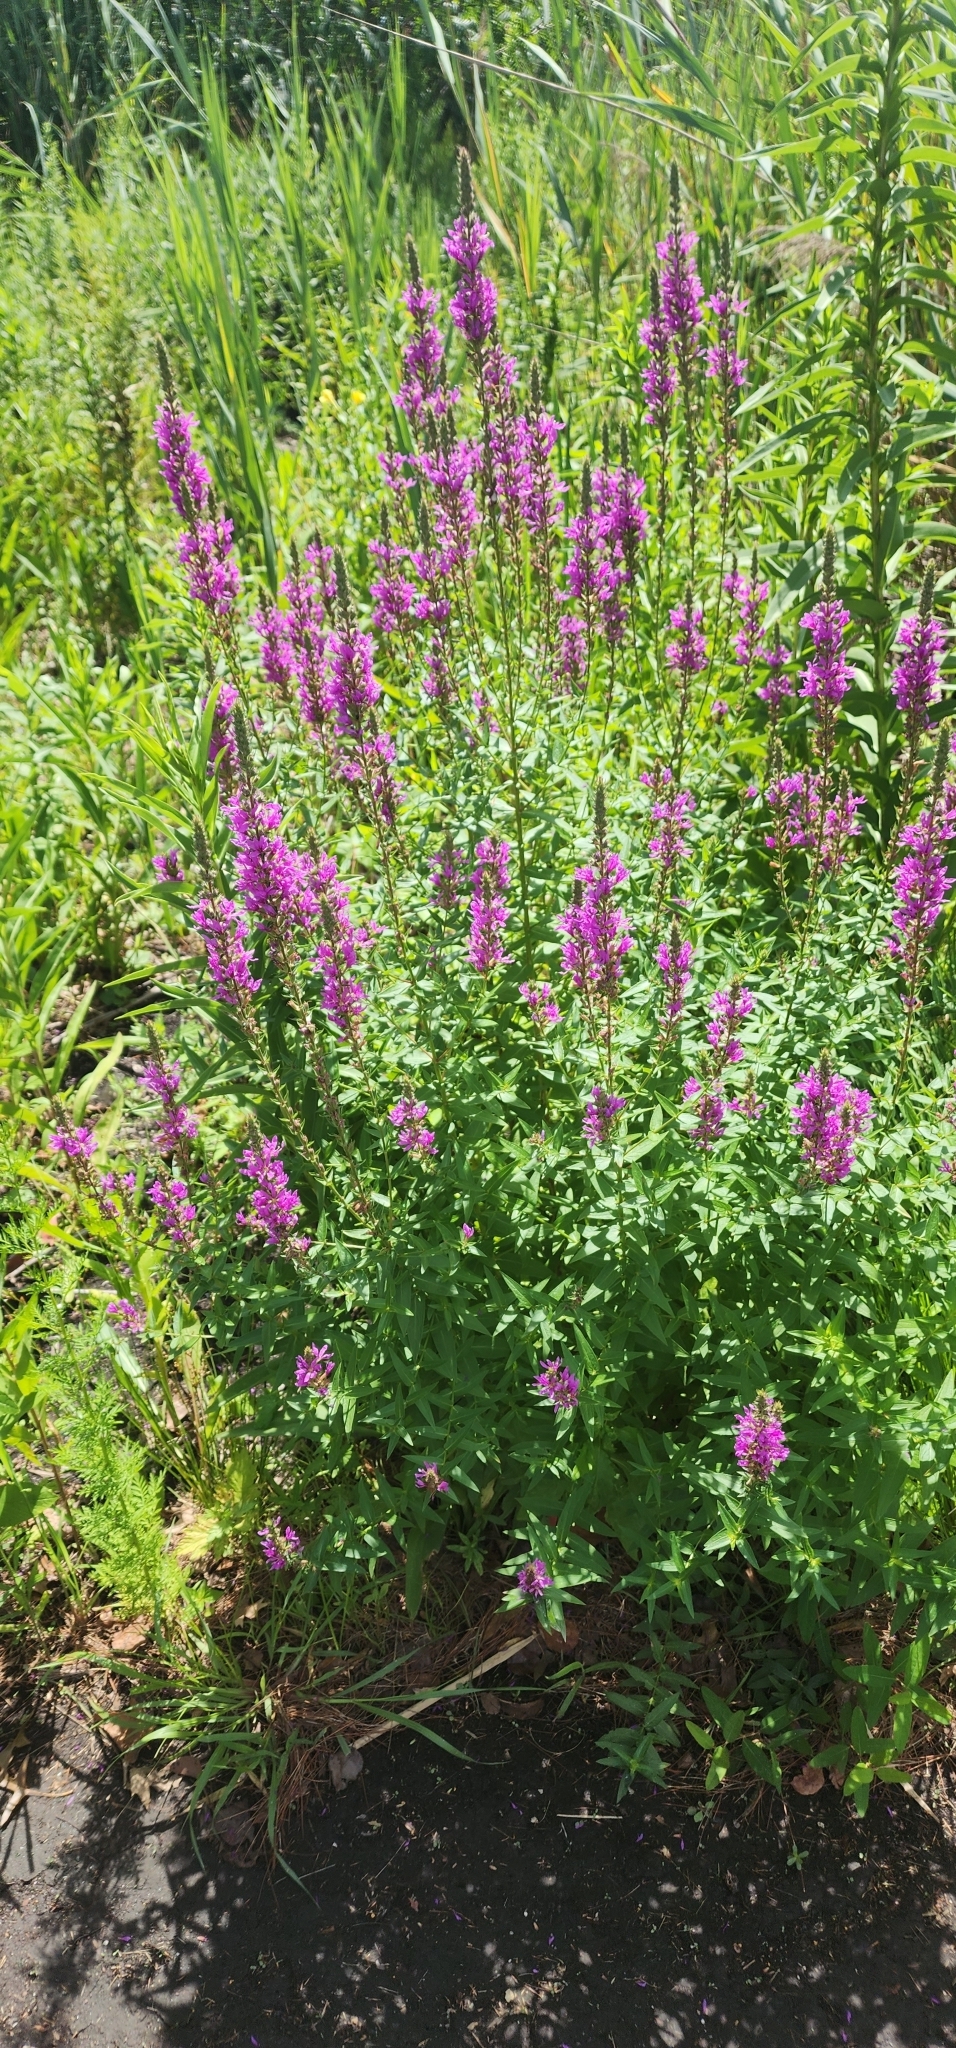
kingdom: Plantae
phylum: Tracheophyta
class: Magnoliopsida
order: Myrtales
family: Lythraceae
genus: Lythrum
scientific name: Lythrum salicaria
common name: Purple loosestrife
